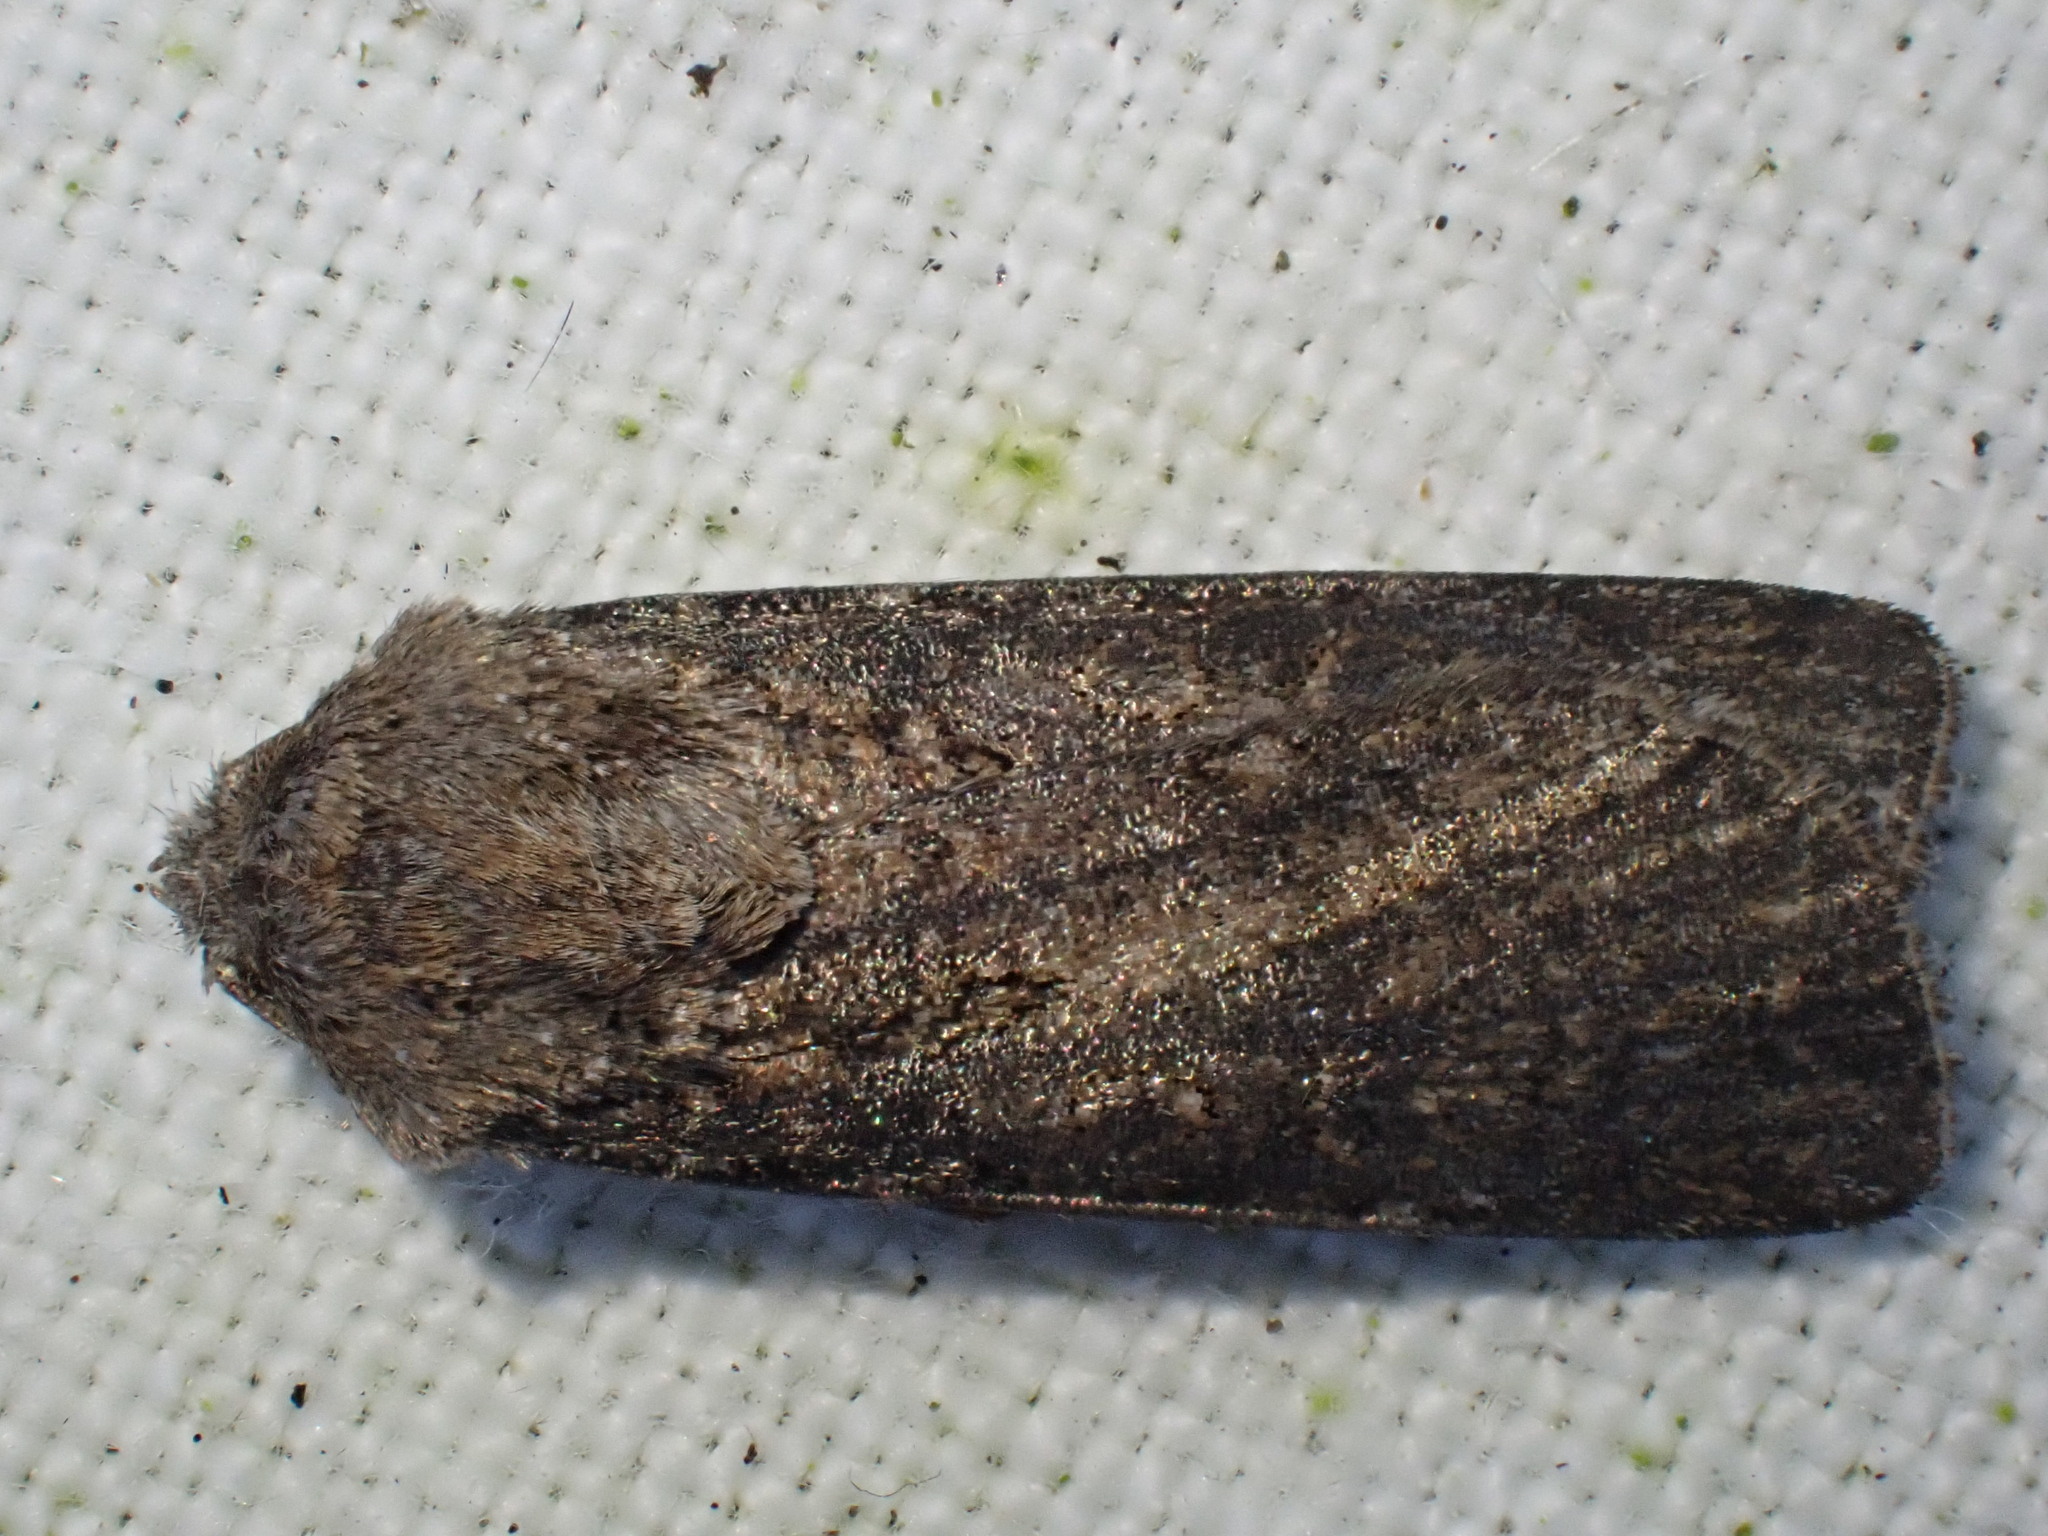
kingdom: Animalia
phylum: Arthropoda
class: Insecta
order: Lepidoptera
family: Noctuidae
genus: Agrotis
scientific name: Agrotis segetum
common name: Turnip moth
